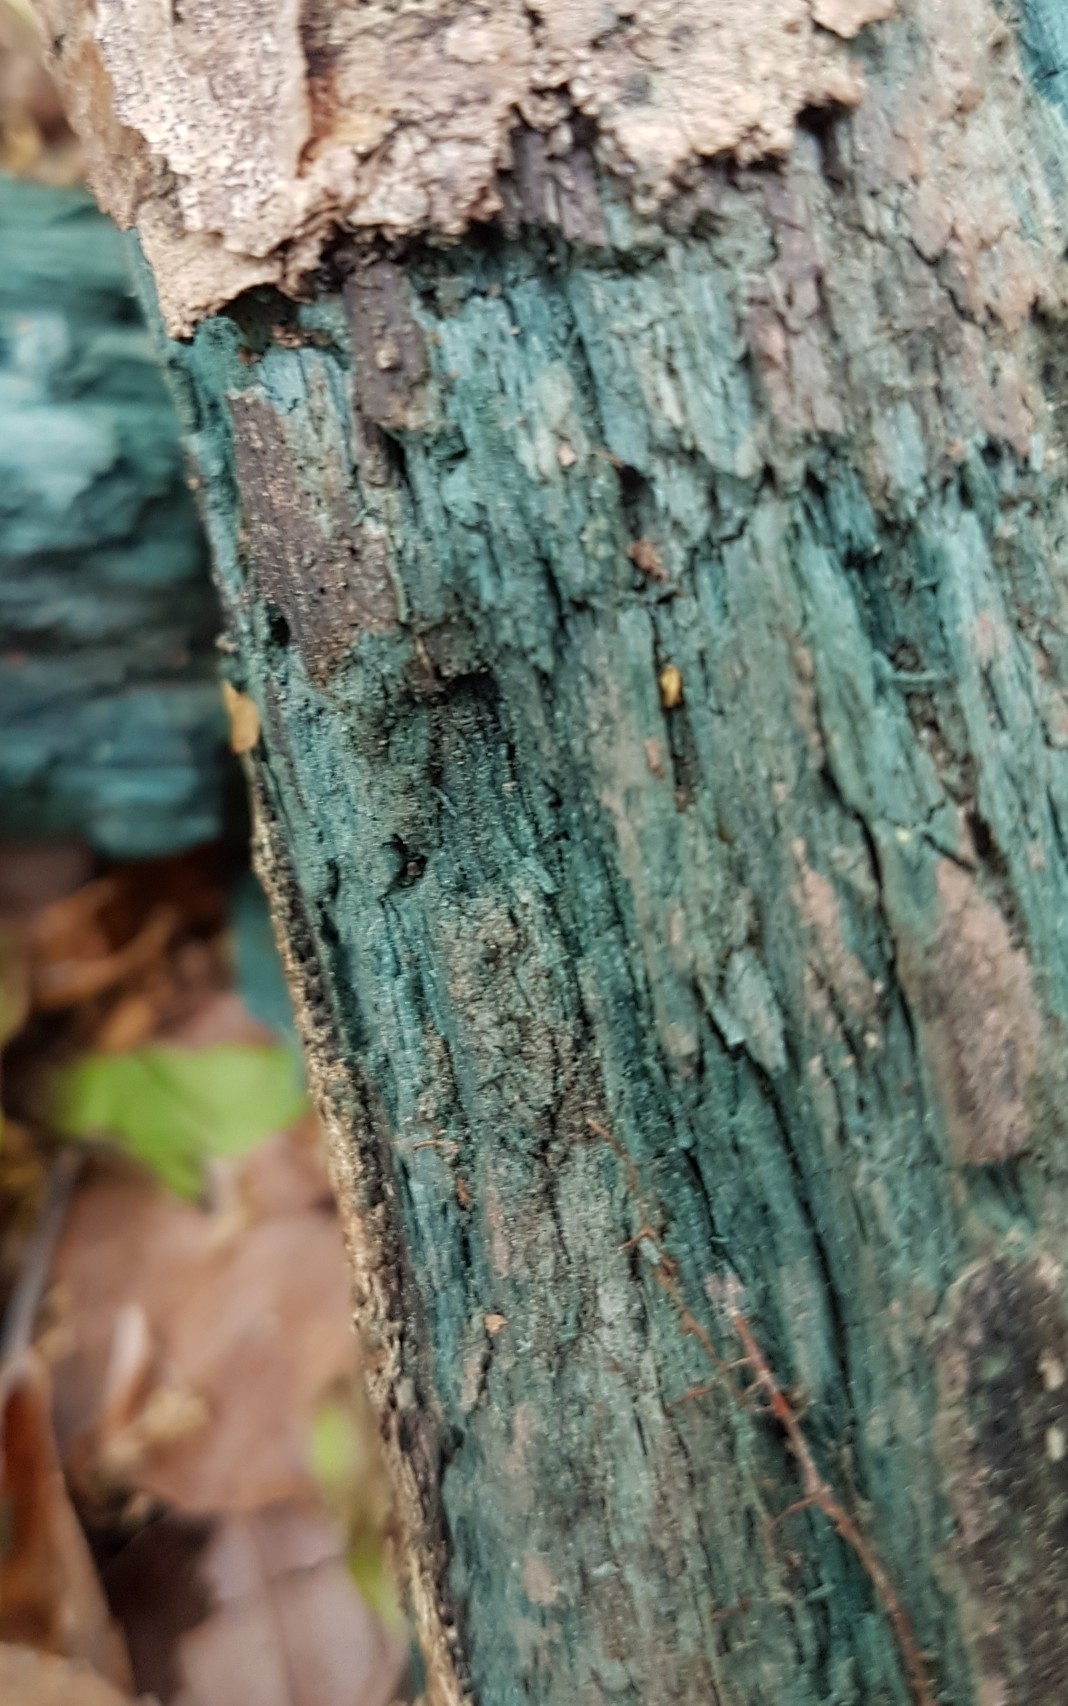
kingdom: Fungi
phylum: Ascomycota
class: Leotiomycetes
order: Helotiales
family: Chlorociboriaceae
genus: Chlorociboria
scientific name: Chlorociboria
